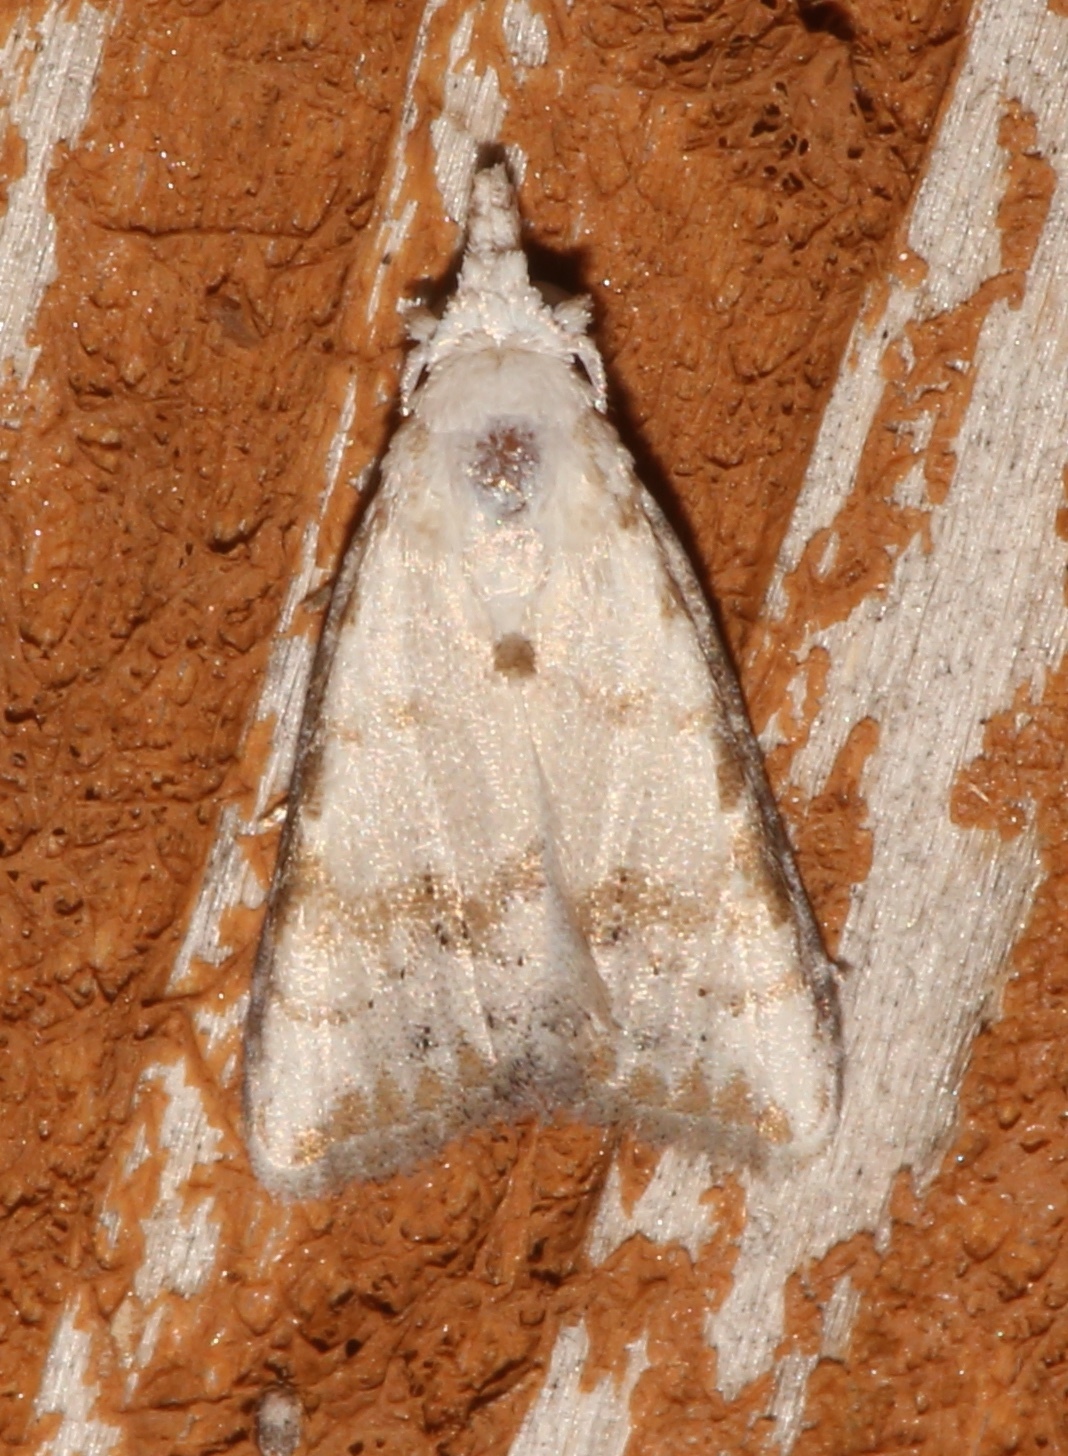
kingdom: Animalia
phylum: Arthropoda
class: Insecta
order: Lepidoptera
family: Nolidae
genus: Nola
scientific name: Nola cereella
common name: Sorghum webworm moth
